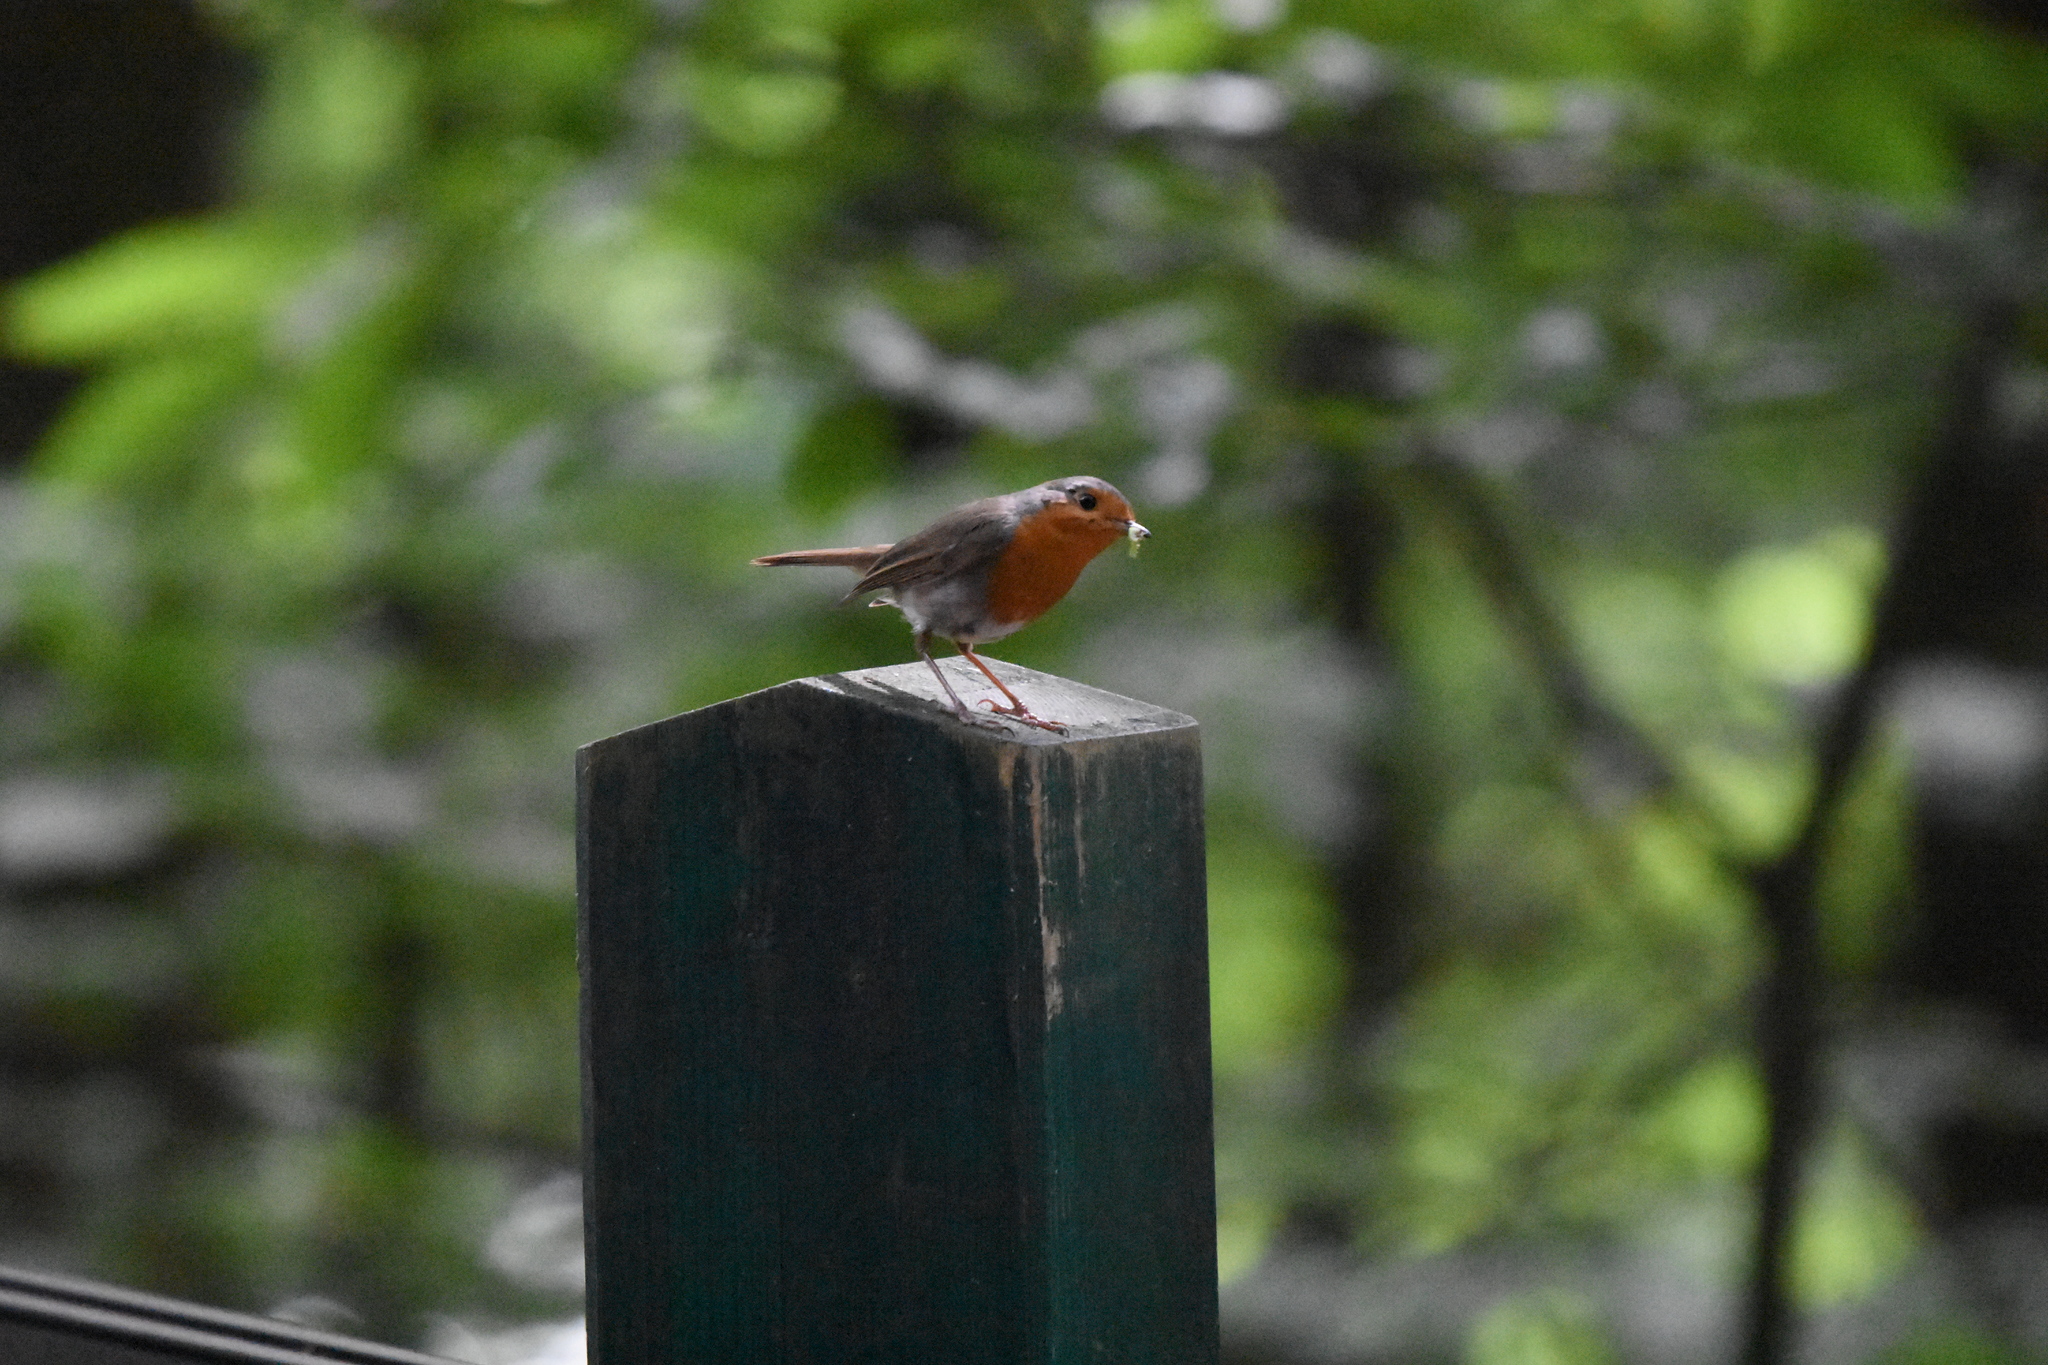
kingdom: Animalia
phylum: Chordata
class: Aves
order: Passeriformes
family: Muscicapidae
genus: Erithacus
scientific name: Erithacus rubecula
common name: European robin
